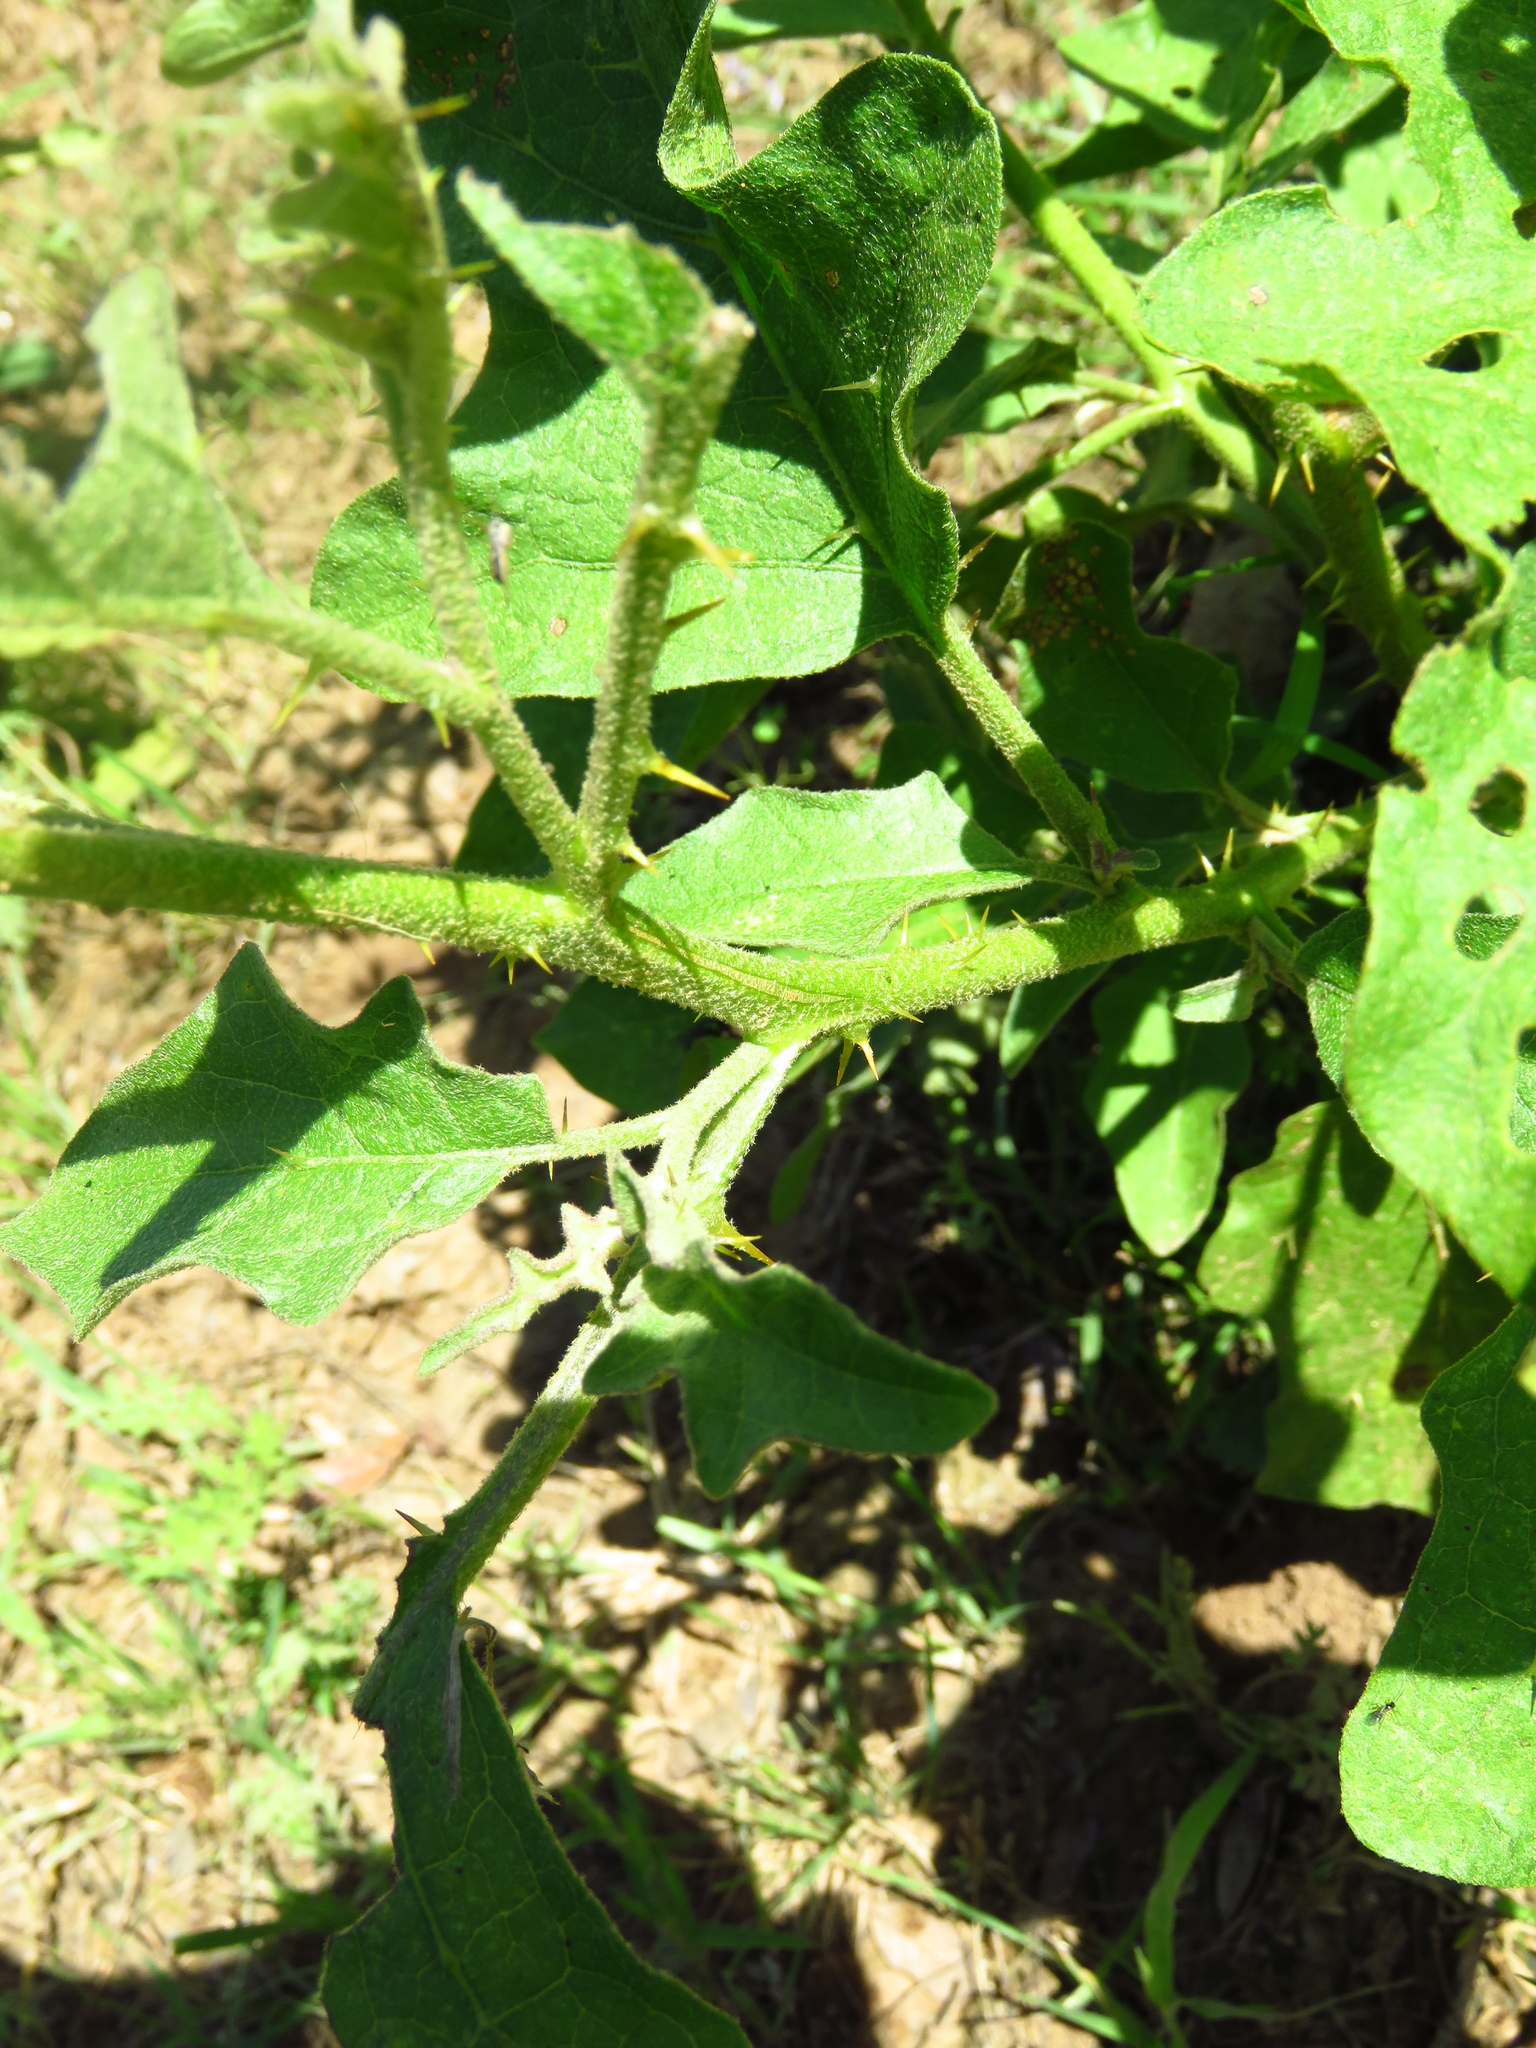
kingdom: Plantae
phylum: Tracheophyta
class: Magnoliopsida
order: Solanales
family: Solanaceae
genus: Solanum
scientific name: Solanum dimidiatum
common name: Carolina horse-nettle
